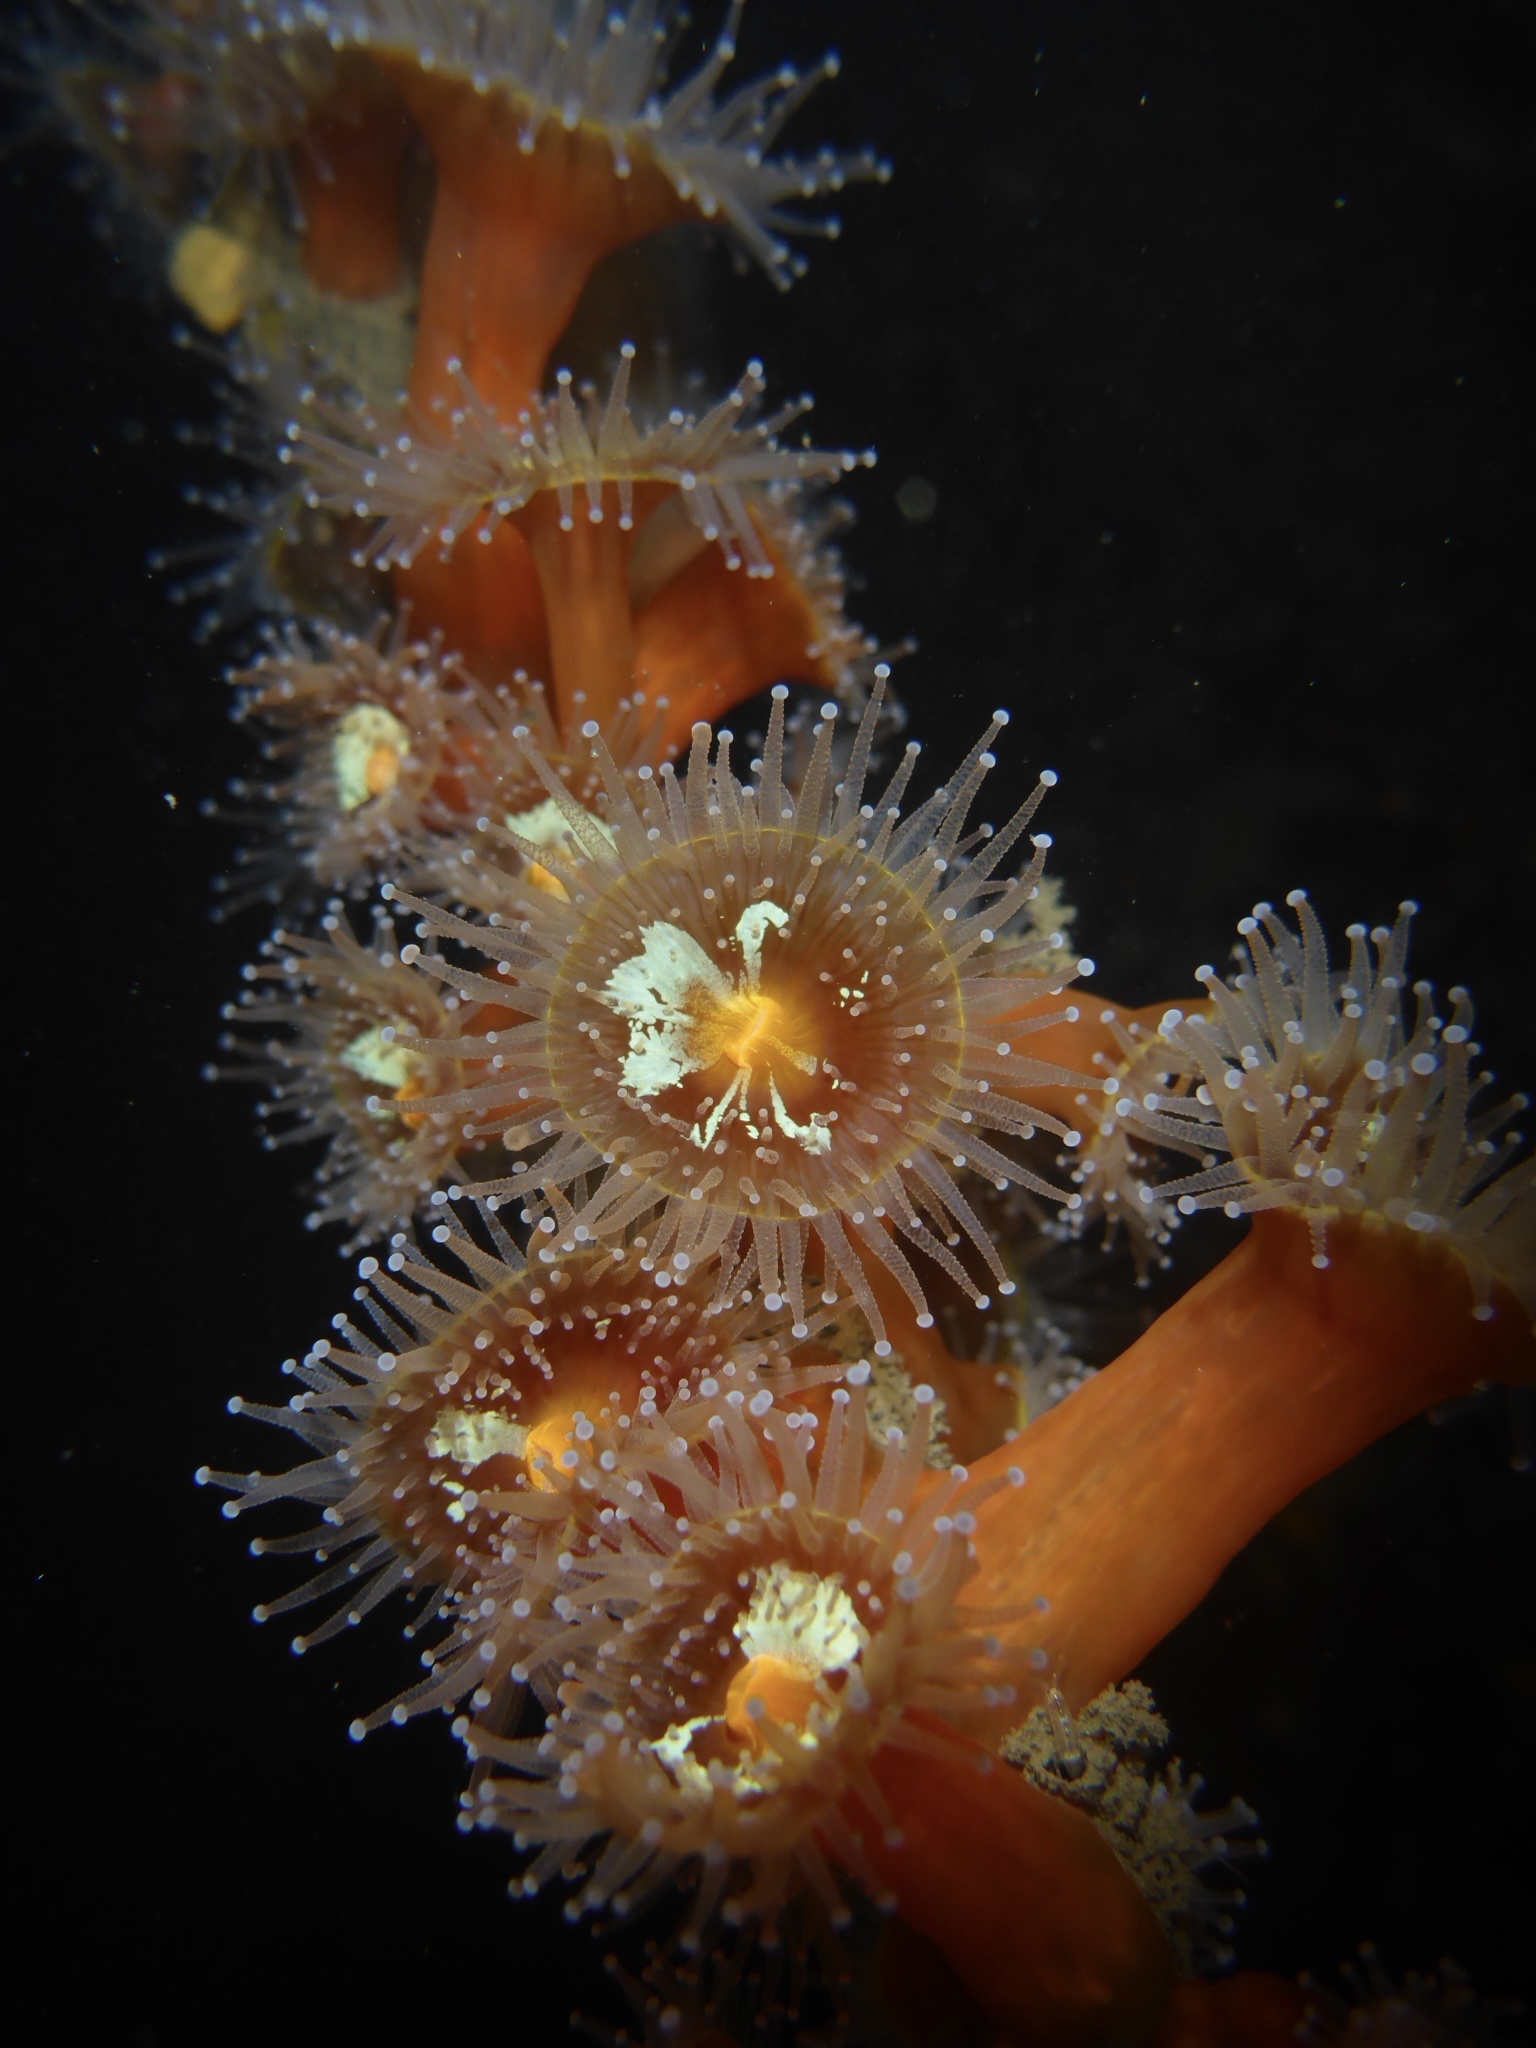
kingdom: Animalia
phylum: Cnidaria
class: Anthozoa
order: Corallimorpharia
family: Corallimorphidae
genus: Corynactis
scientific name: Corynactis californica
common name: Strawberry corallimorpharian
